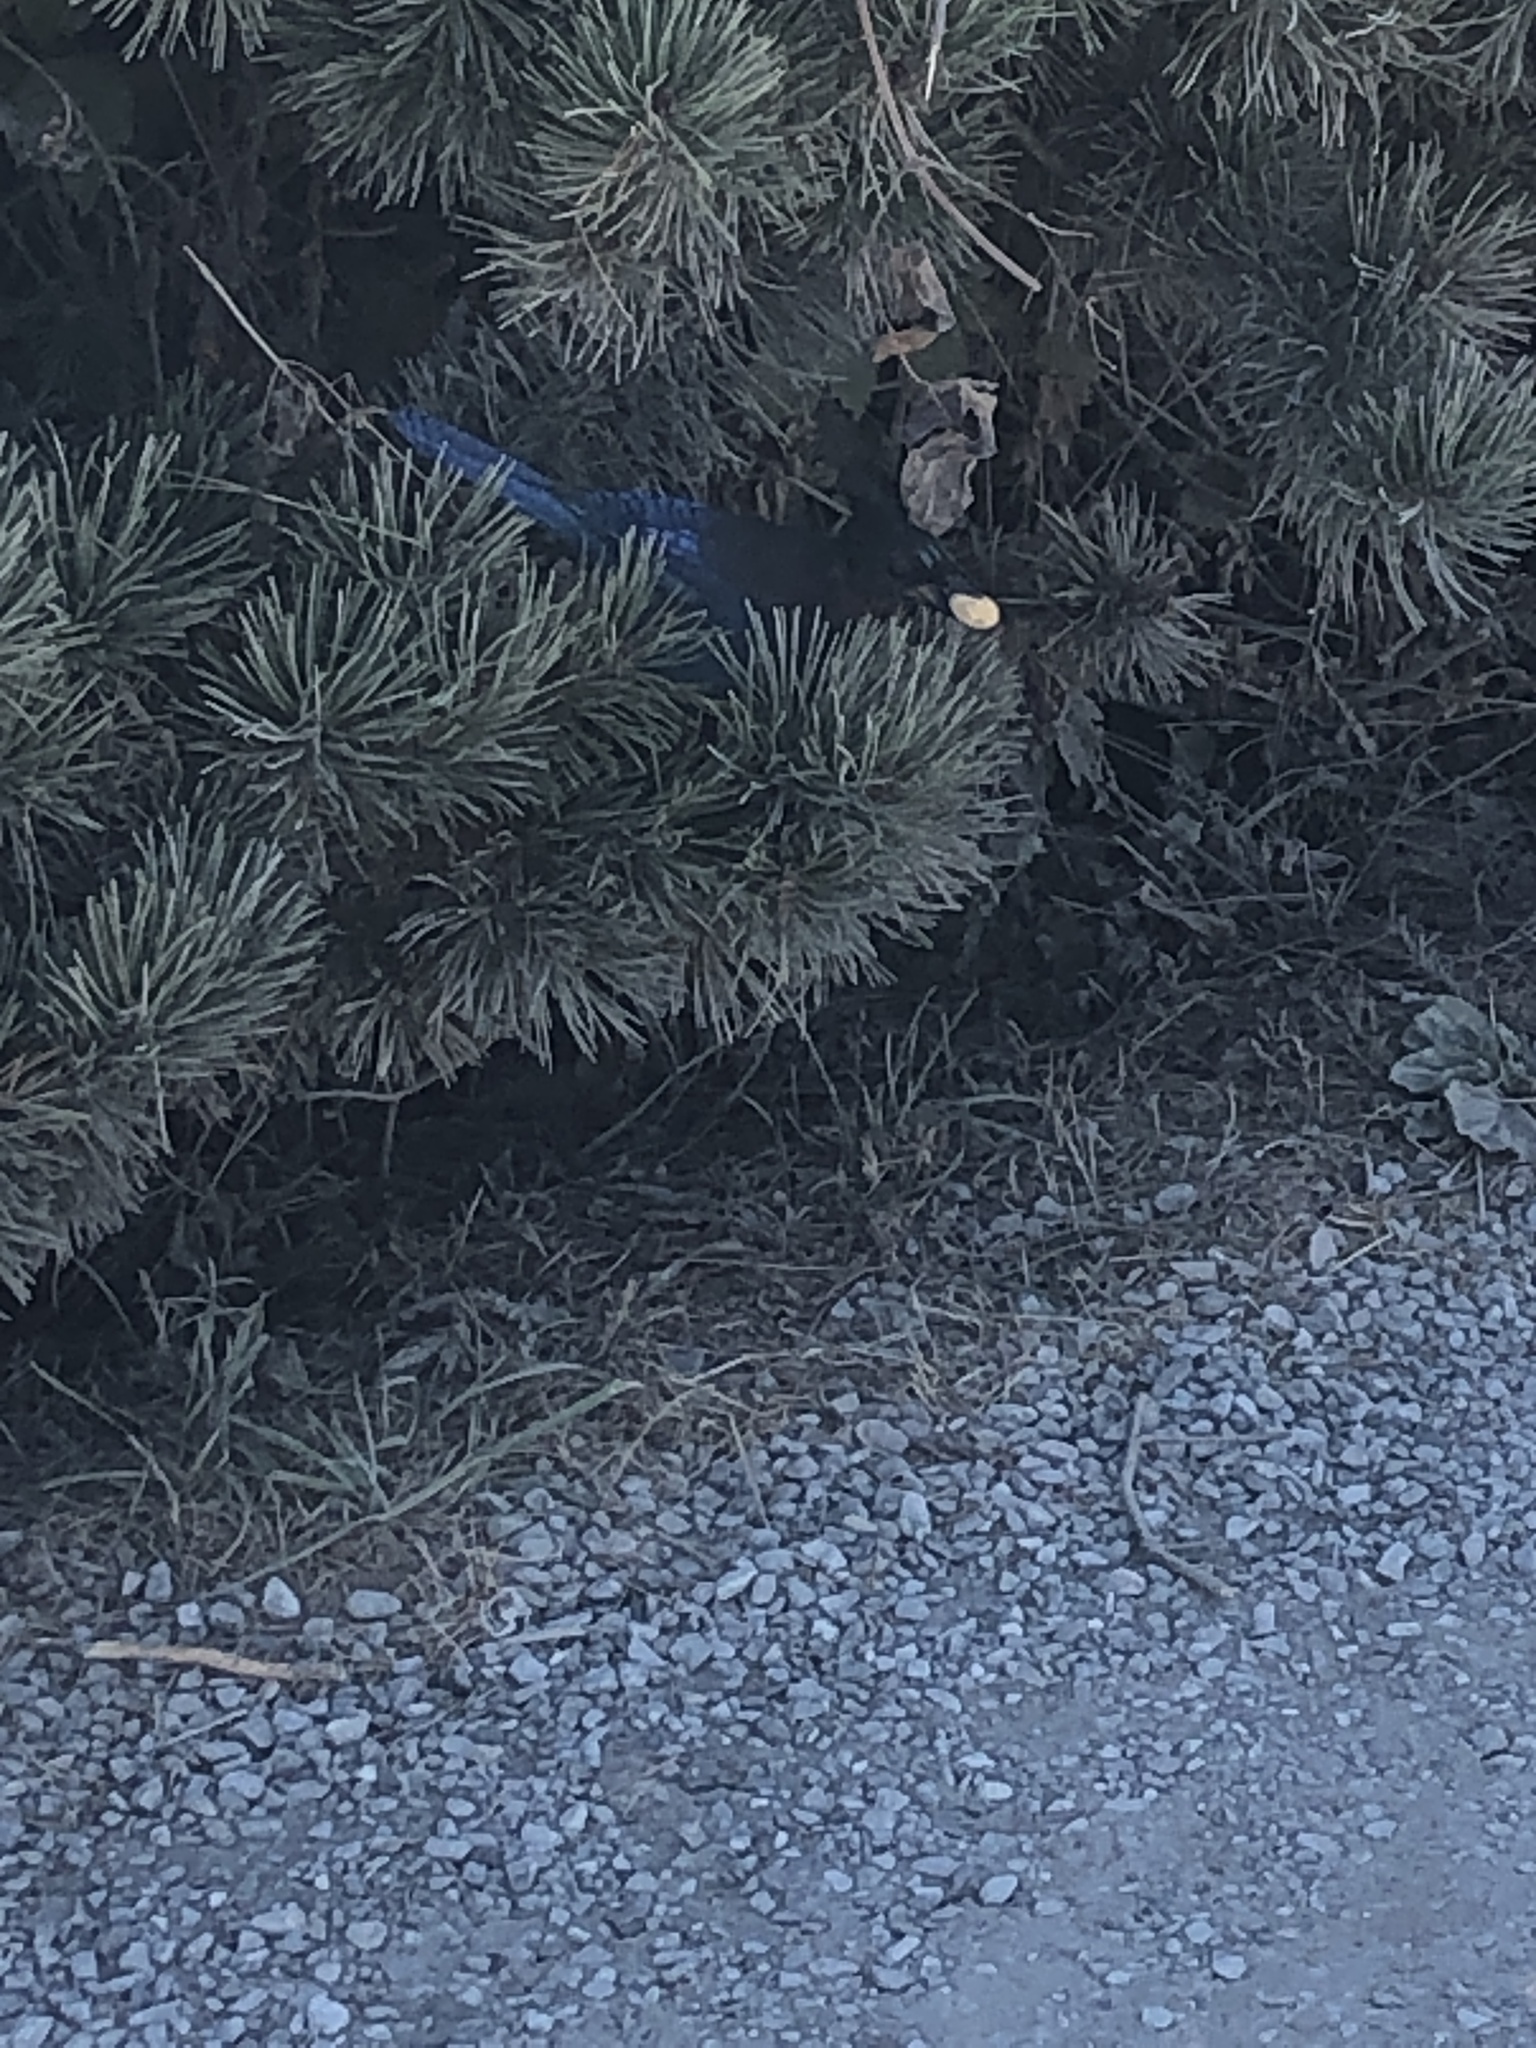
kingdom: Animalia
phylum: Chordata
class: Aves
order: Passeriformes
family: Corvidae
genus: Cyanocitta
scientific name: Cyanocitta stelleri
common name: Steller's jay
